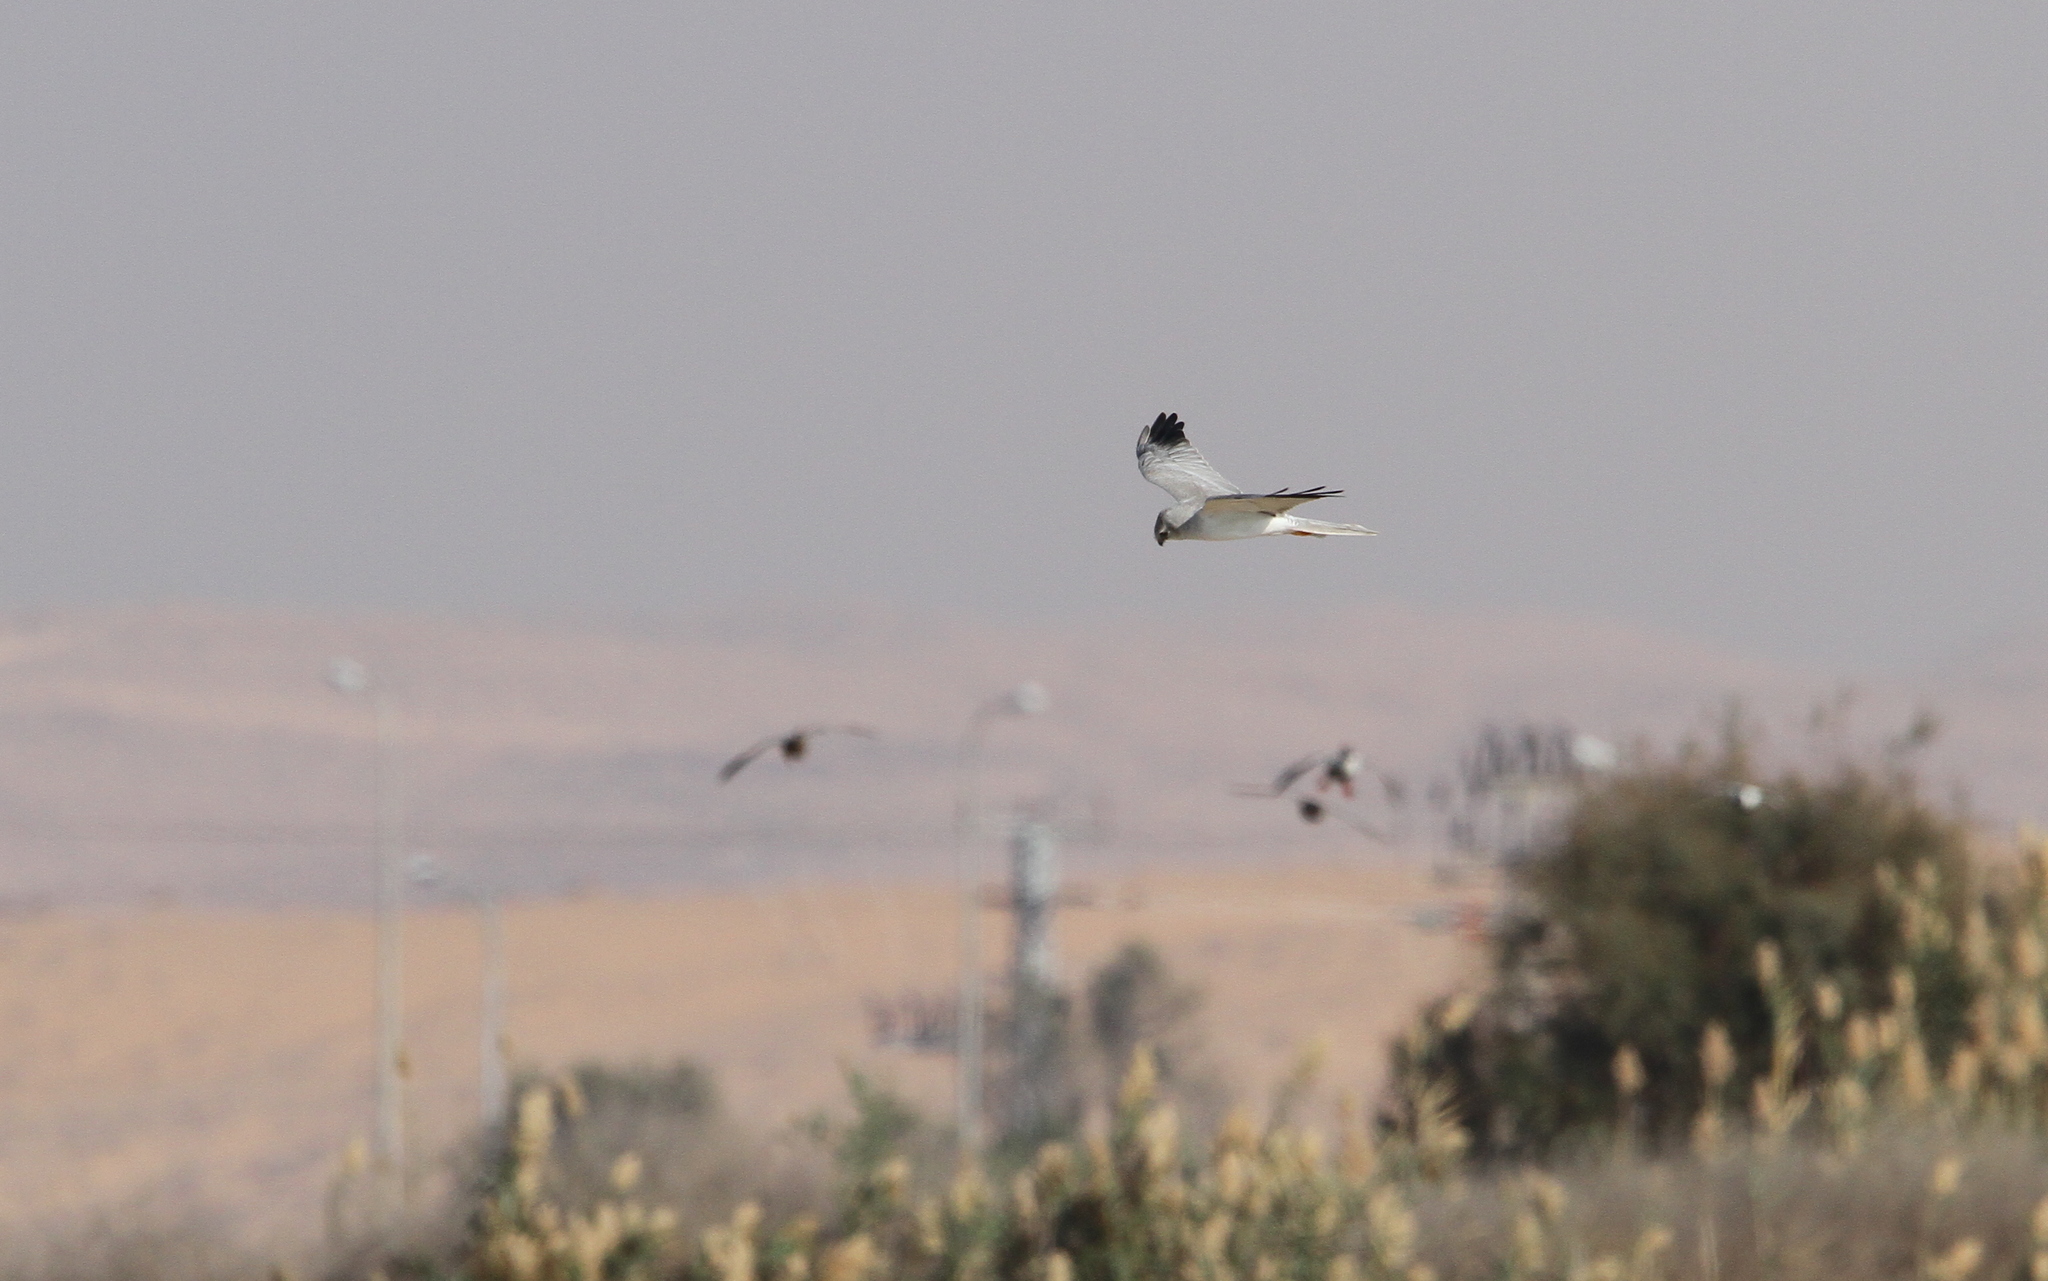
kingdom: Animalia
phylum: Chordata
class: Aves
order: Accipitriformes
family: Accipitridae
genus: Circus
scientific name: Circus macrourus
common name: Pallid harrier
